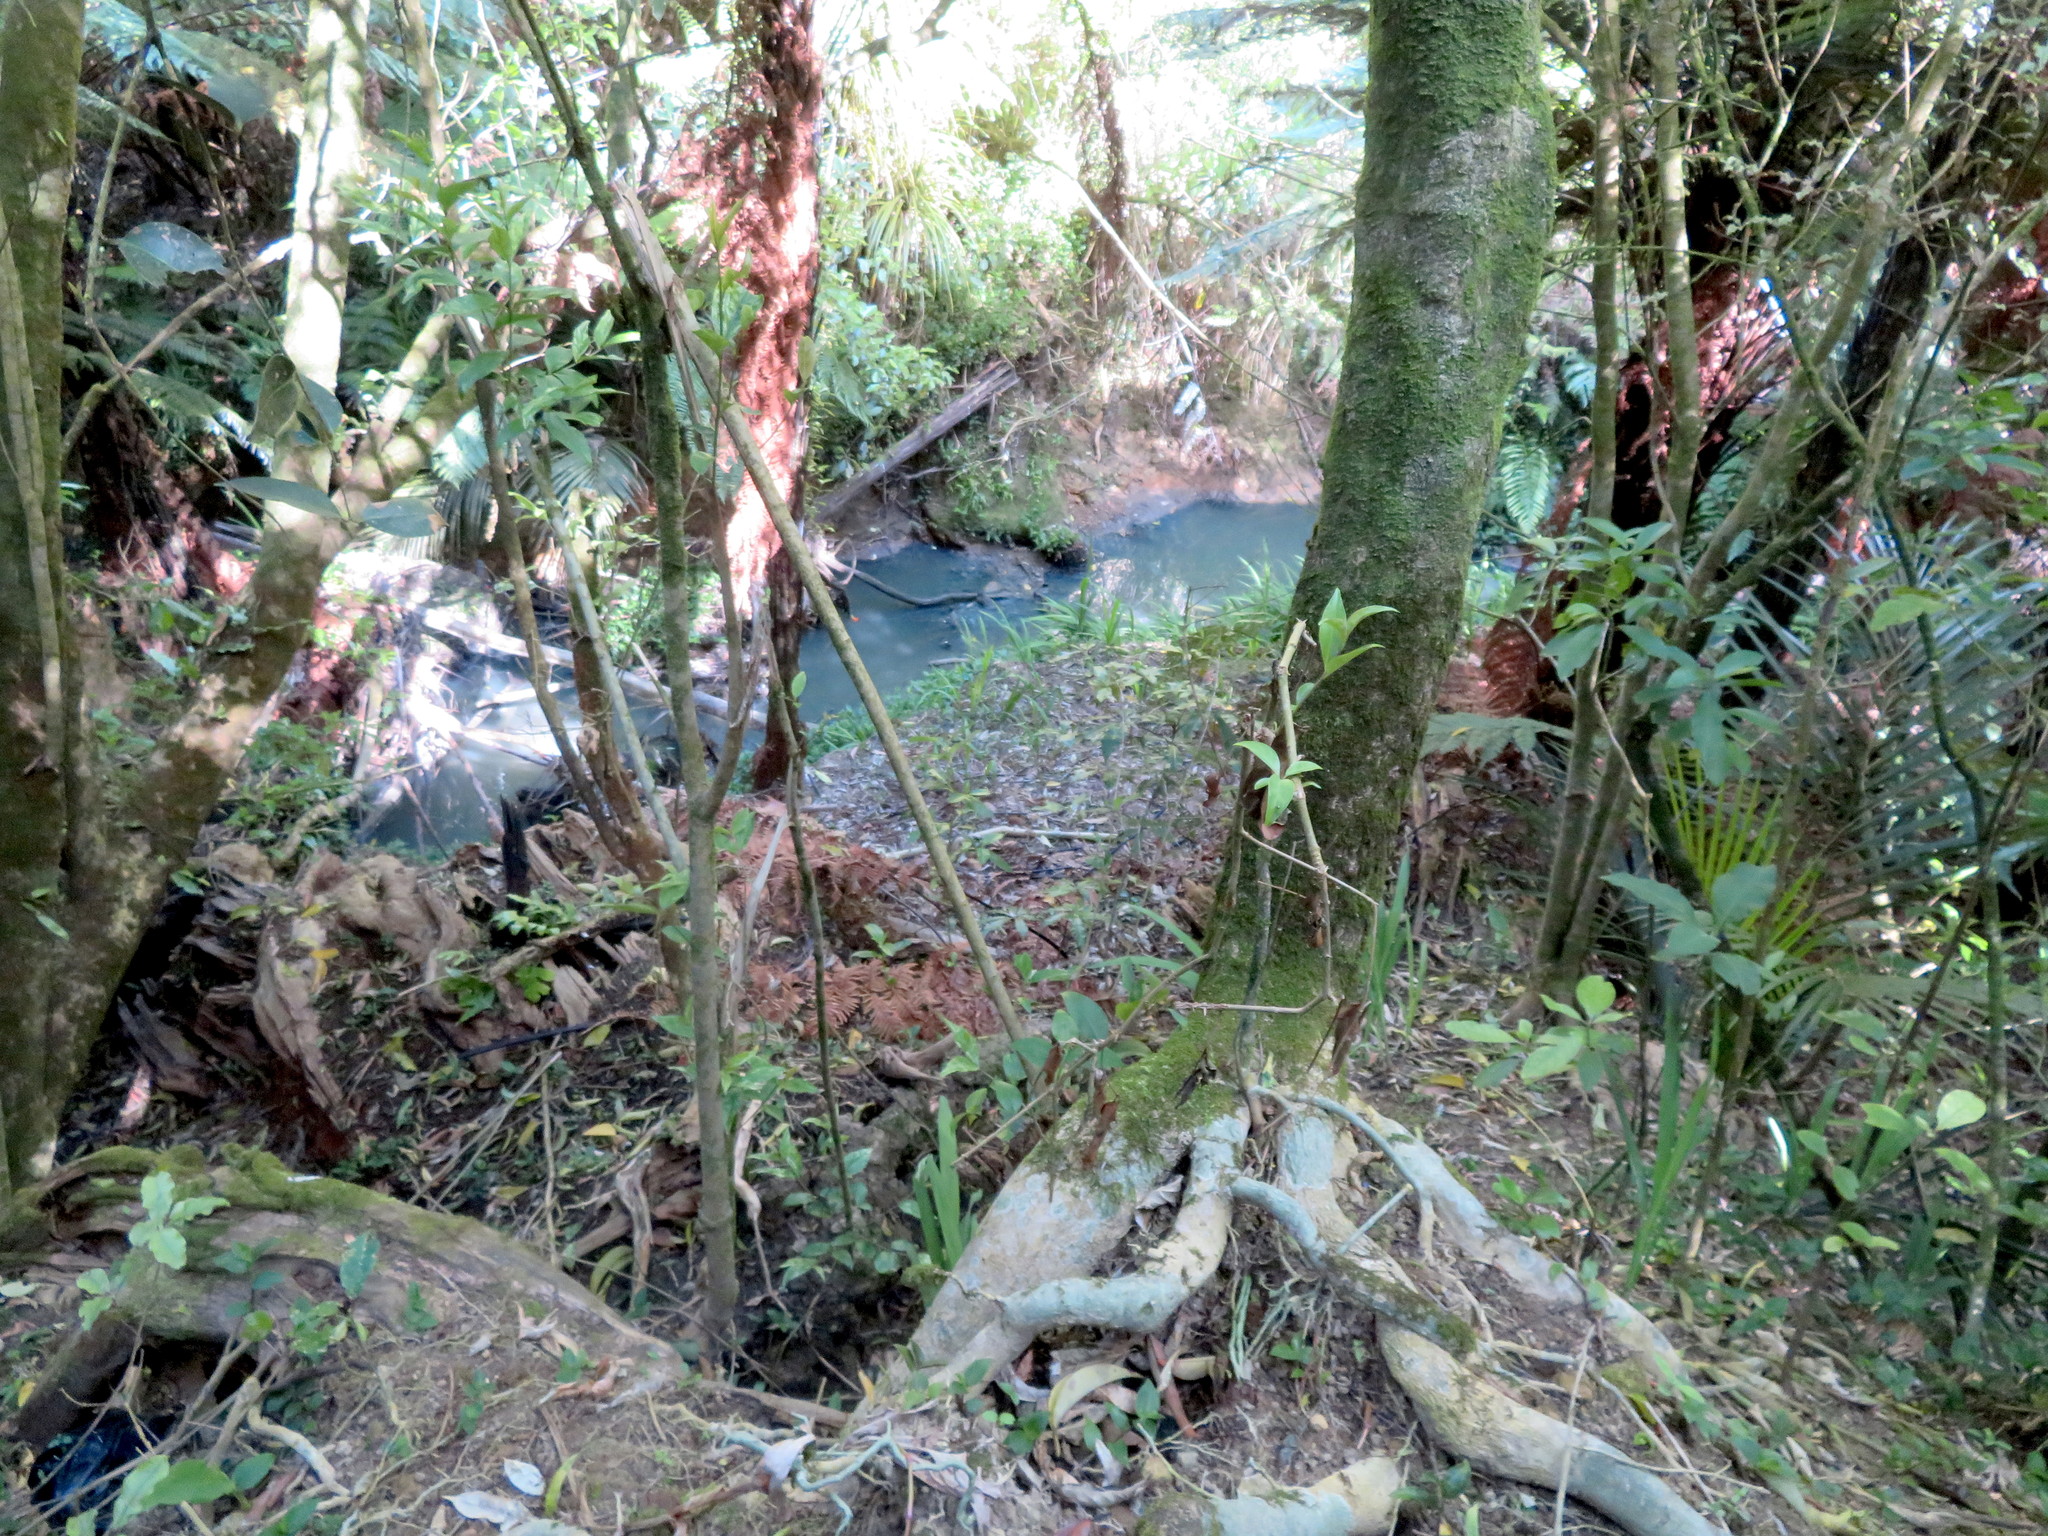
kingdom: Plantae
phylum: Tracheophyta
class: Magnoliopsida
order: Lamiales
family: Oleaceae
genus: Ligustrum
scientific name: Ligustrum lucidum
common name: Glossy privet
